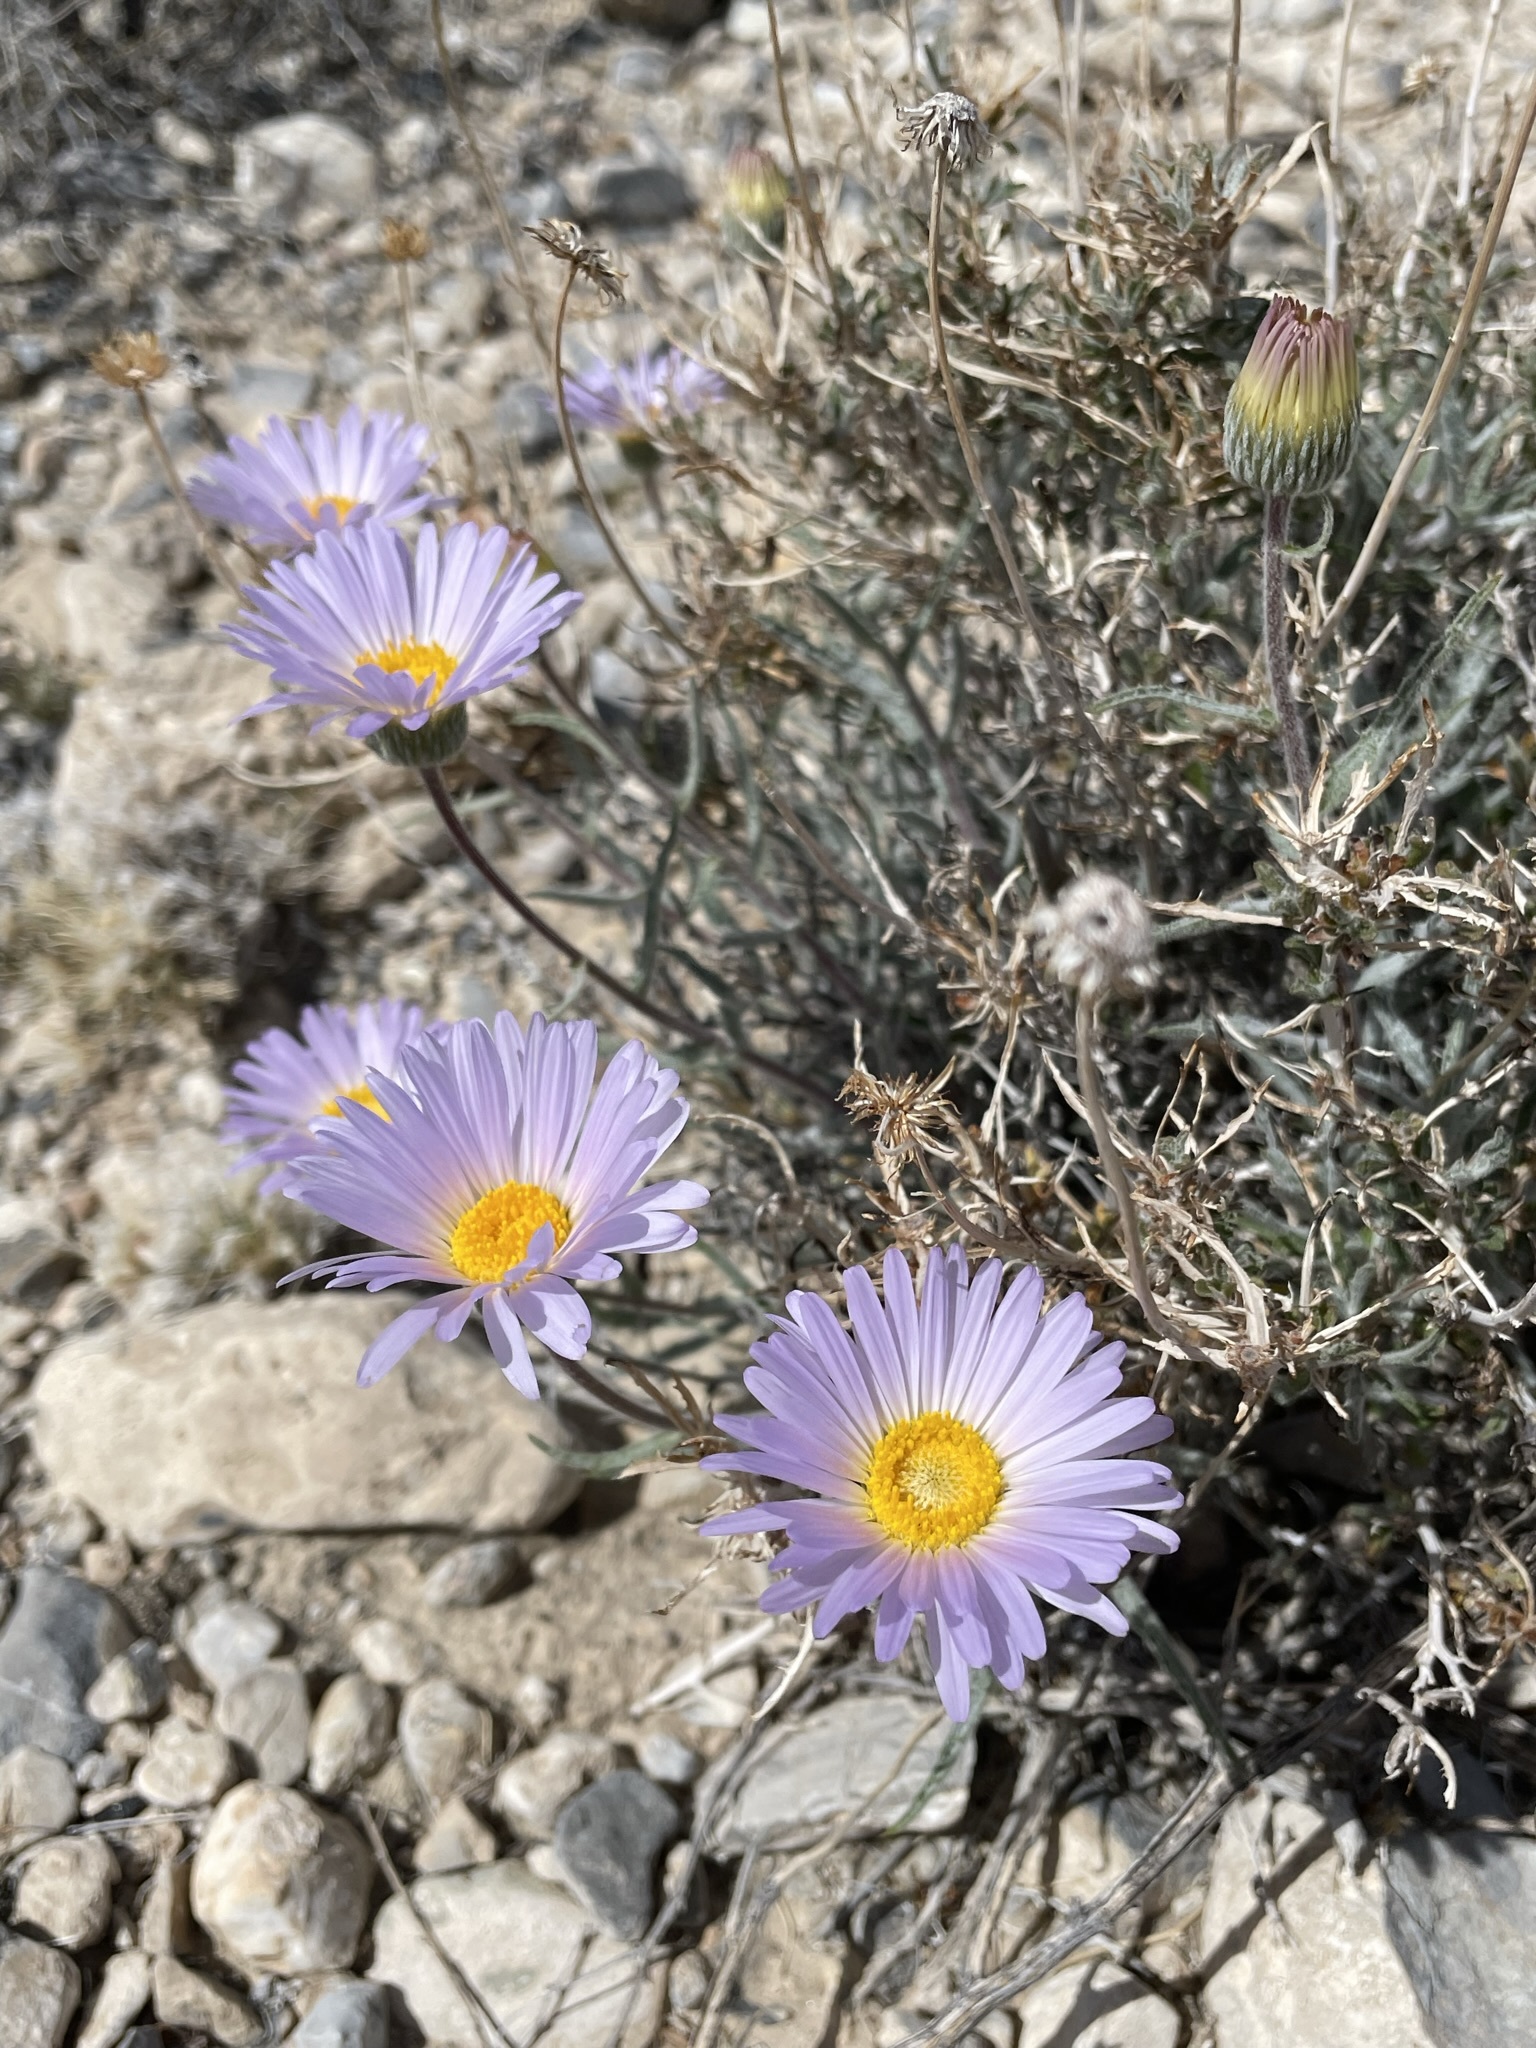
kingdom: Plantae
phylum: Tracheophyta
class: Magnoliopsida
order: Asterales
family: Asteraceae
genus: Xylorhiza
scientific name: Xylorhiza tortifolia
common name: Hurt-leaf woody-aster
